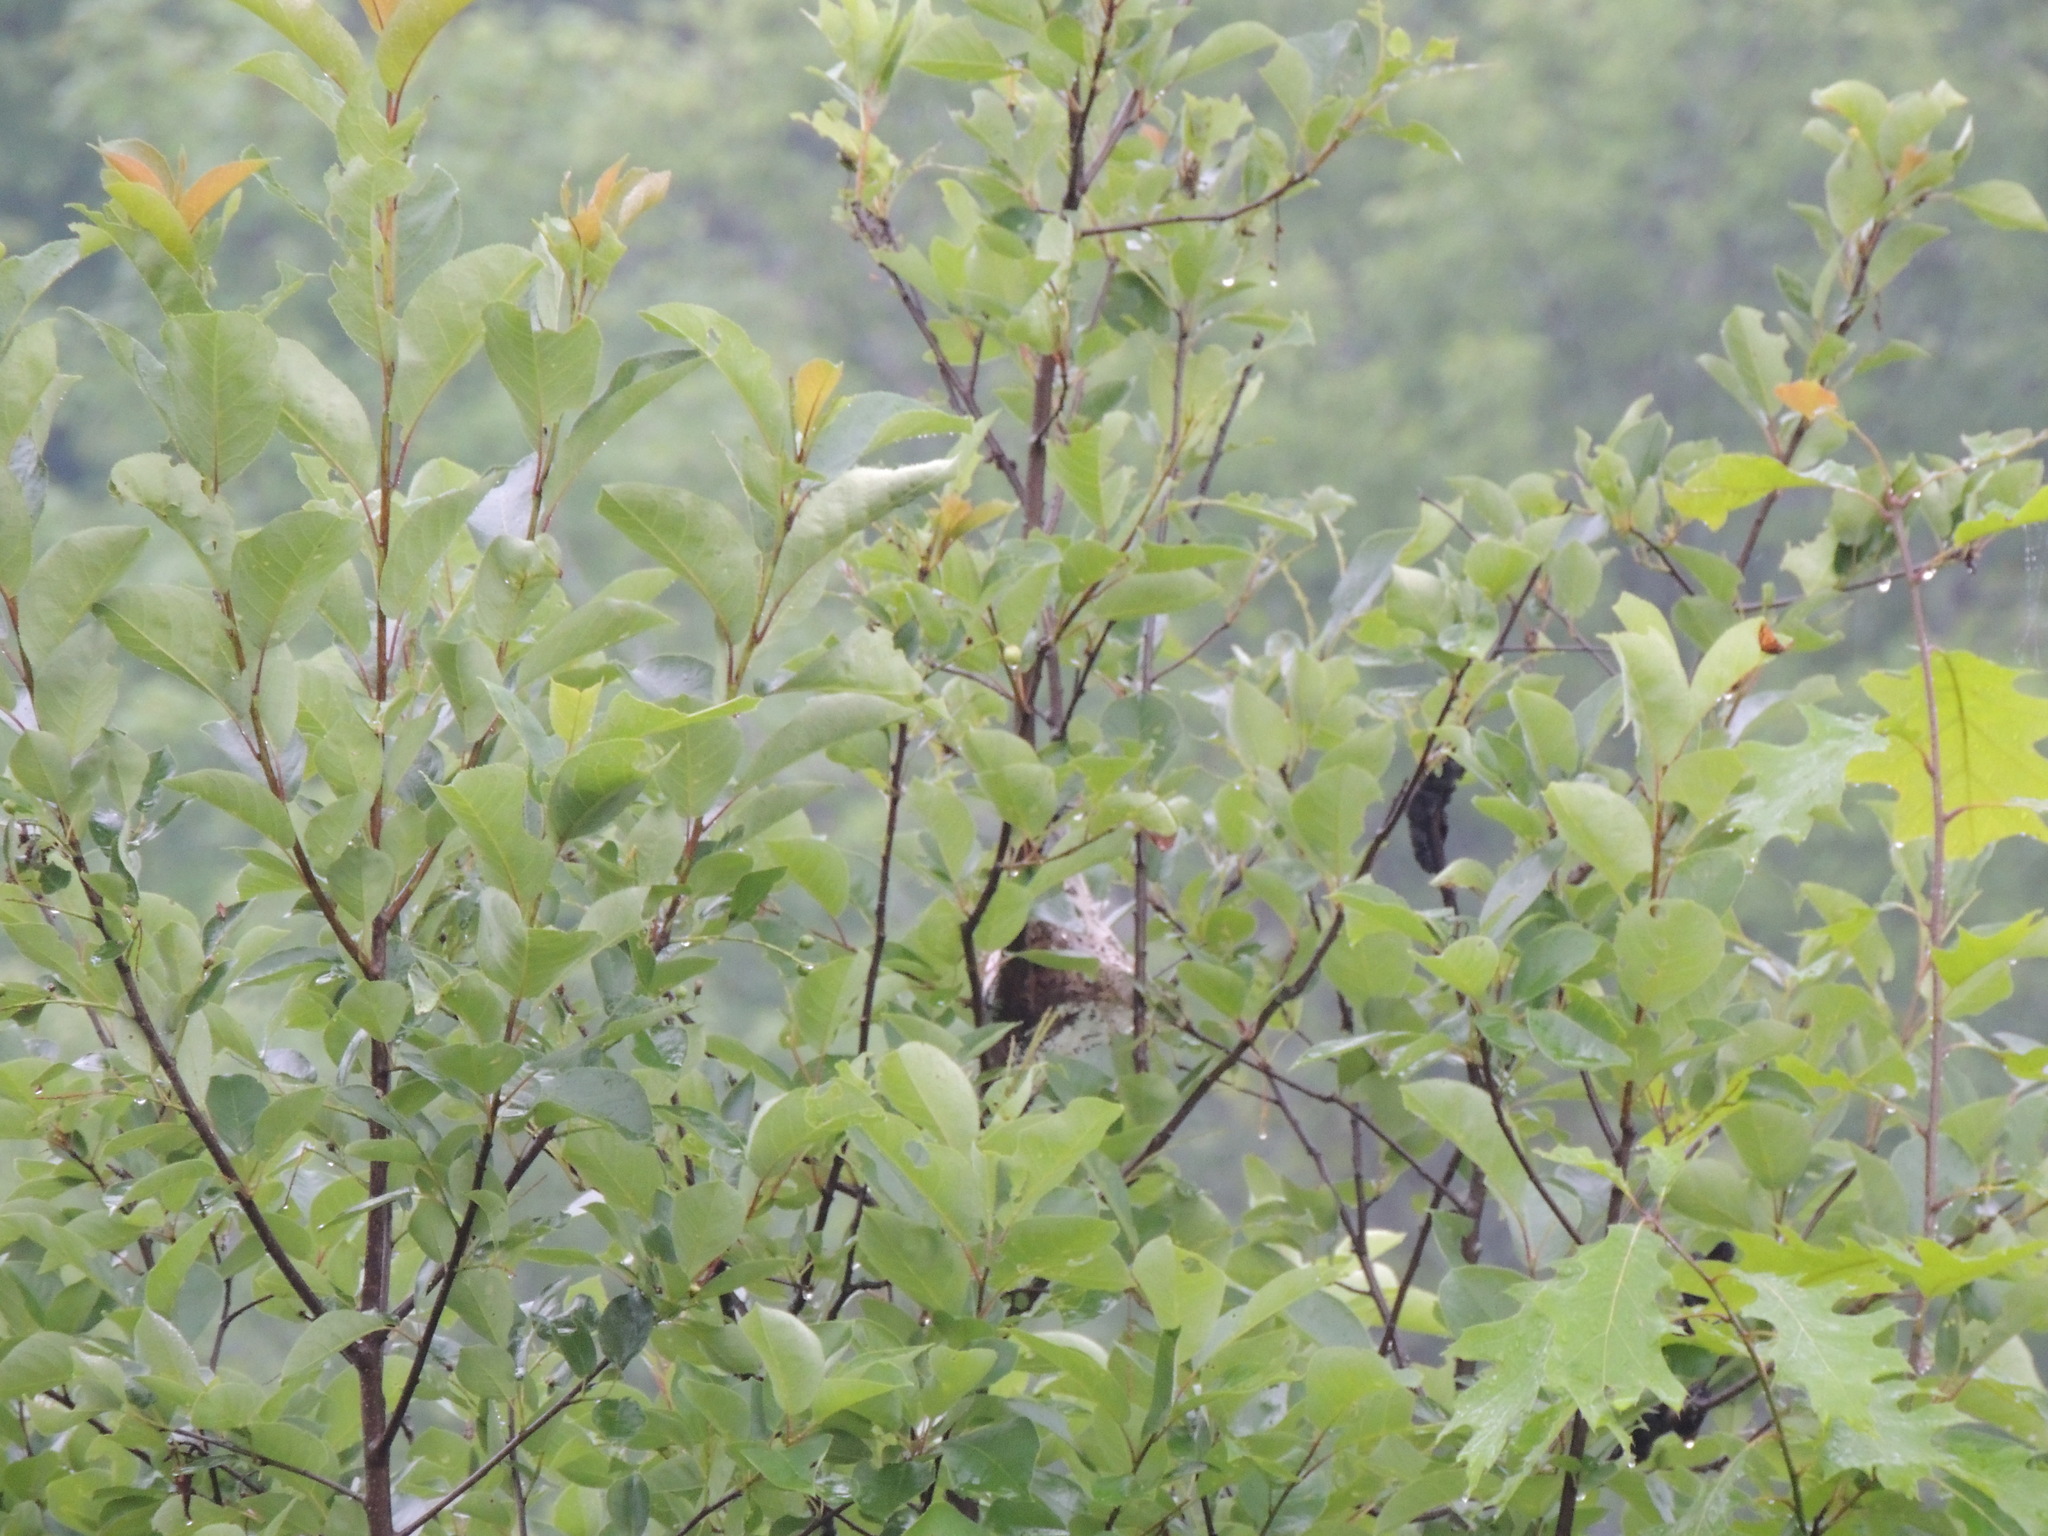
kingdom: Animalia
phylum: Arthropoda
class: Insecta
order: Lepidoptera
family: Lasiocampidae
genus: Malacosoma
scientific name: Malacosoma americana
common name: Eastern tent caterpillar moth
